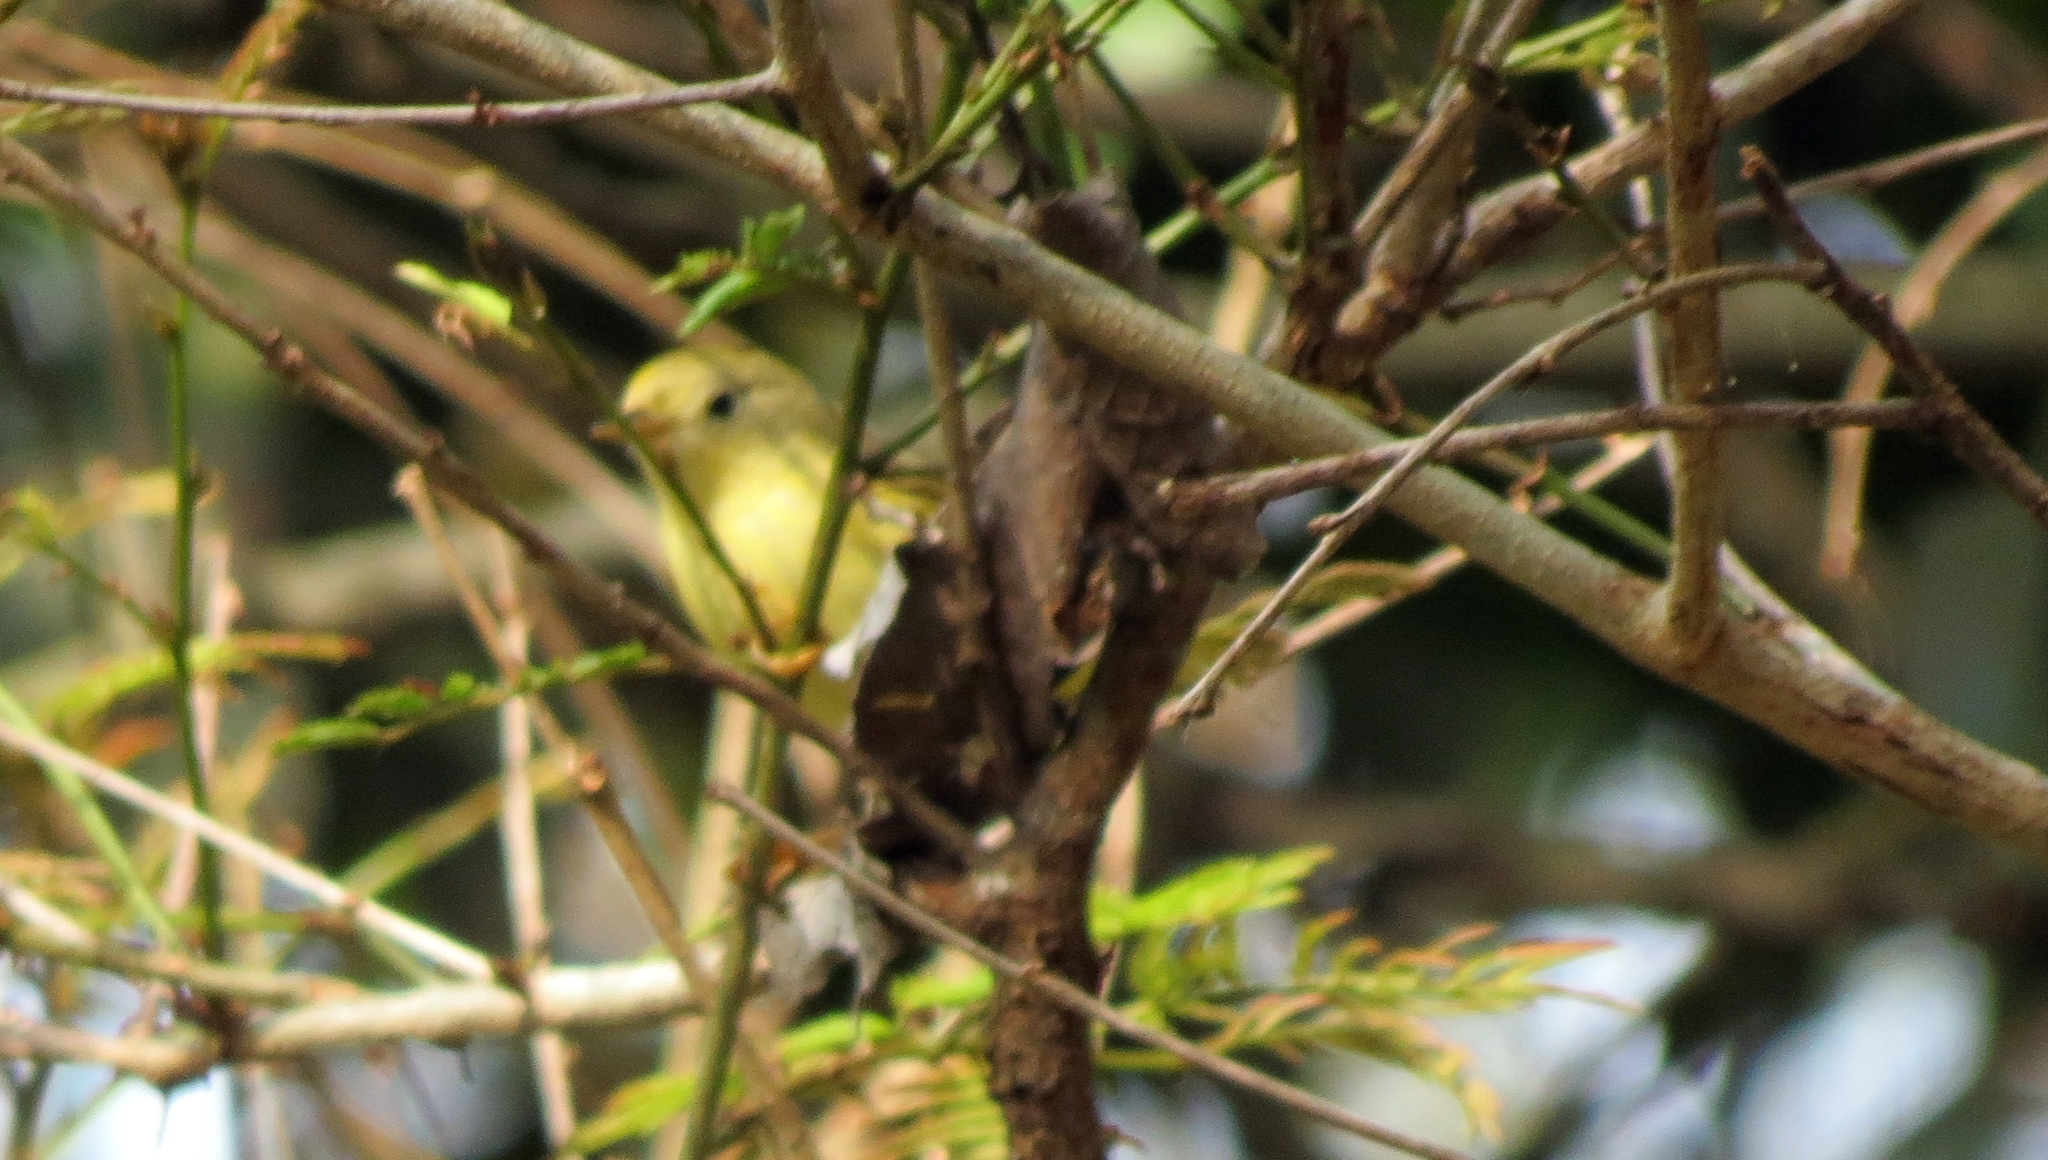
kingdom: Animalia
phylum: Chordata
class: Aves
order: Passeriformes
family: Parulidae
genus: Setophaga
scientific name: Setophaga petechia
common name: Yellow warbler
